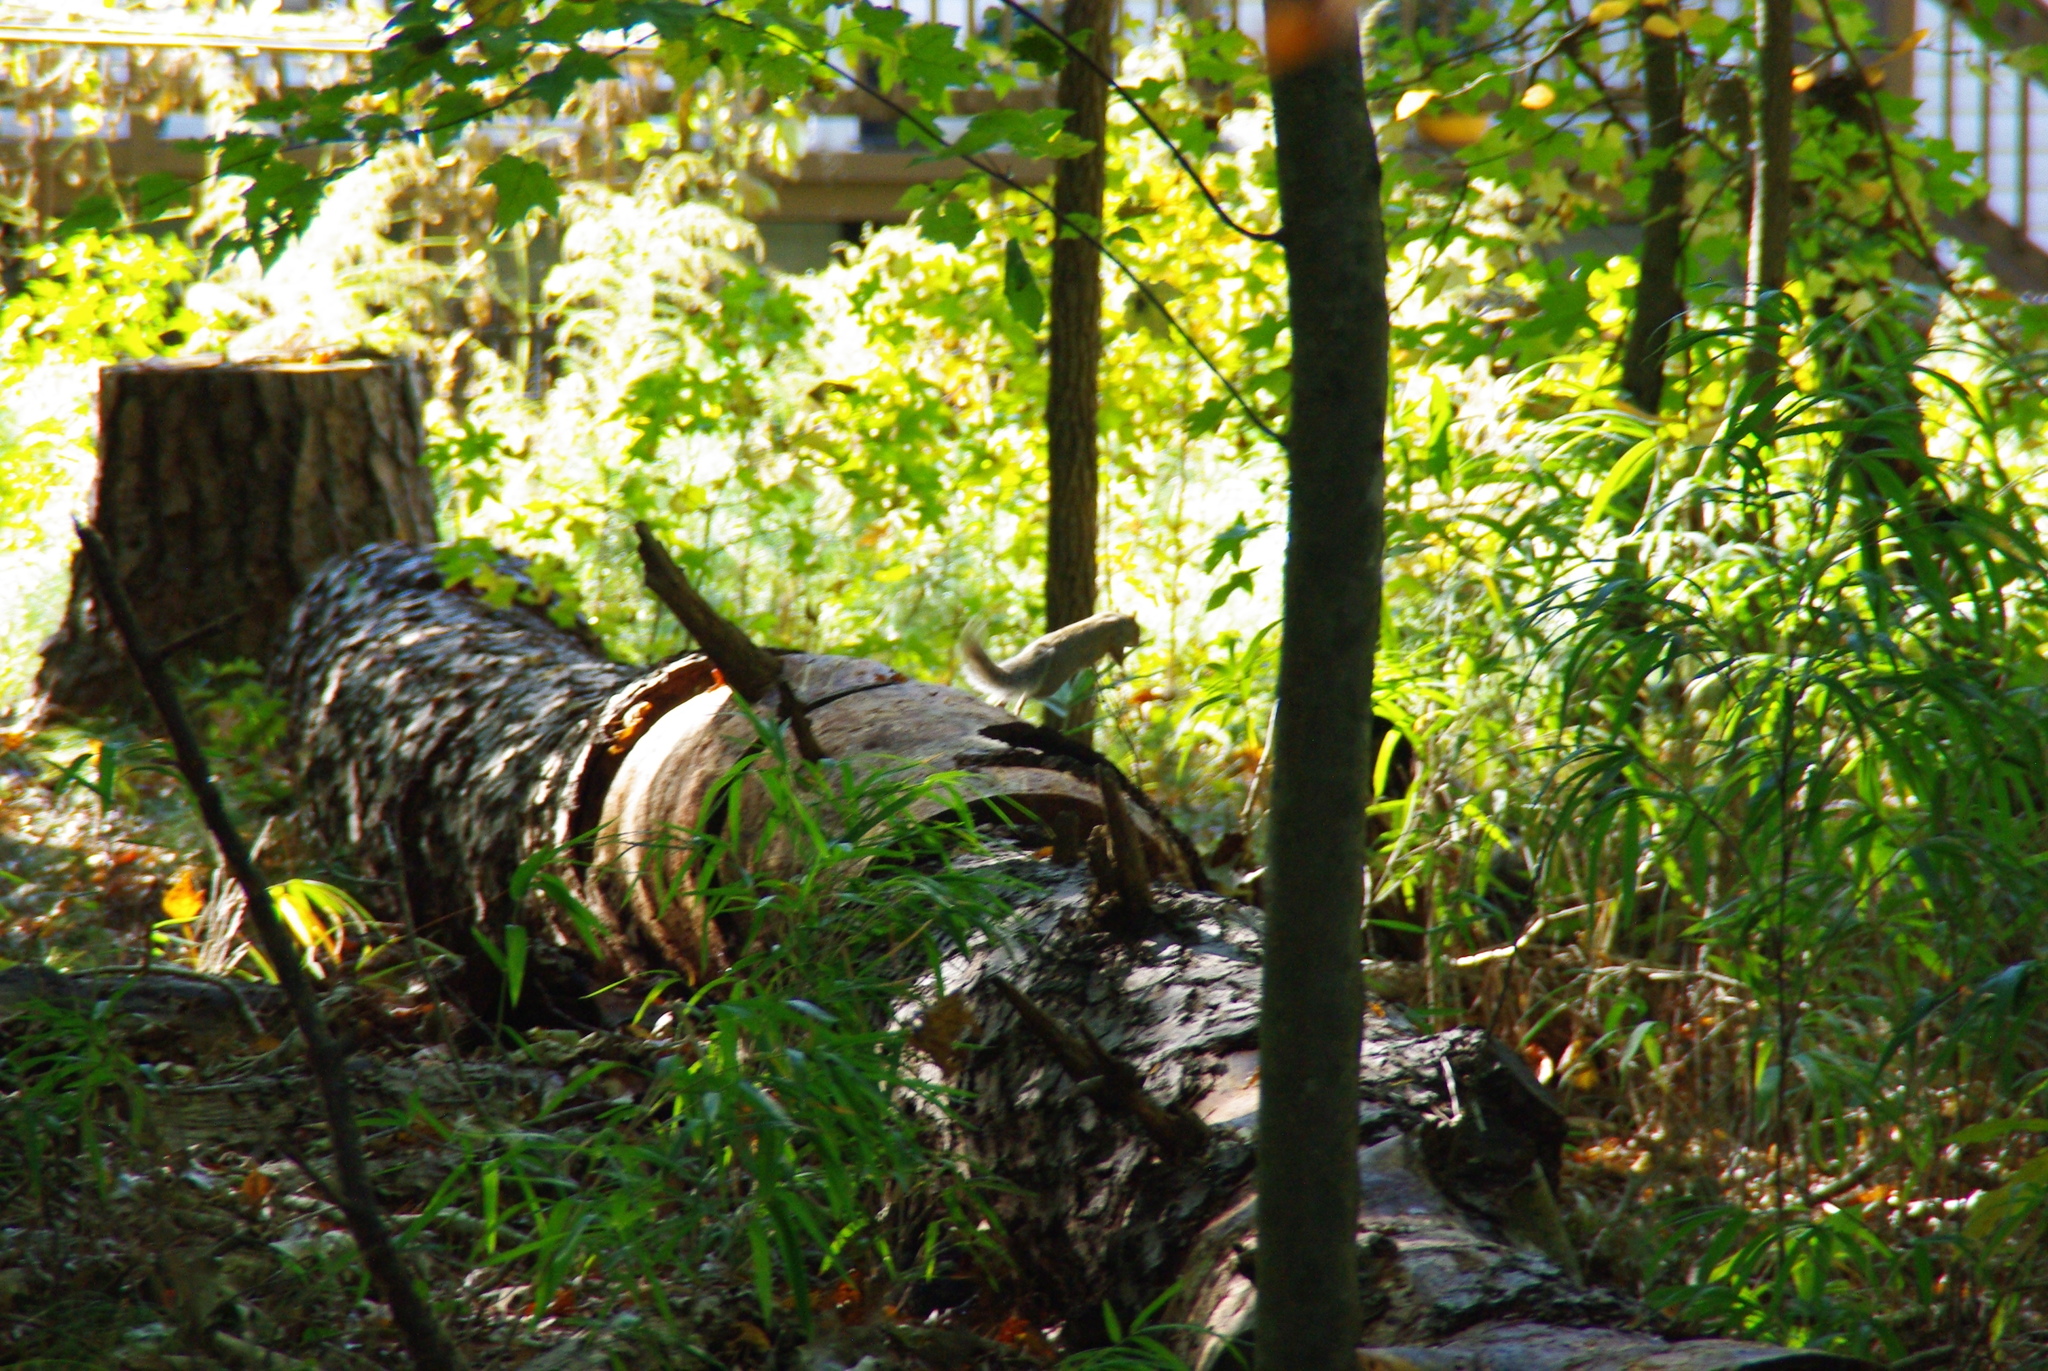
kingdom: Animalia
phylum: Chordata
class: Mammalia
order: Rodentia
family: Sciuridae
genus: Sciurus
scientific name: Sciurus carolinensis
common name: Eastern gray squirrel
